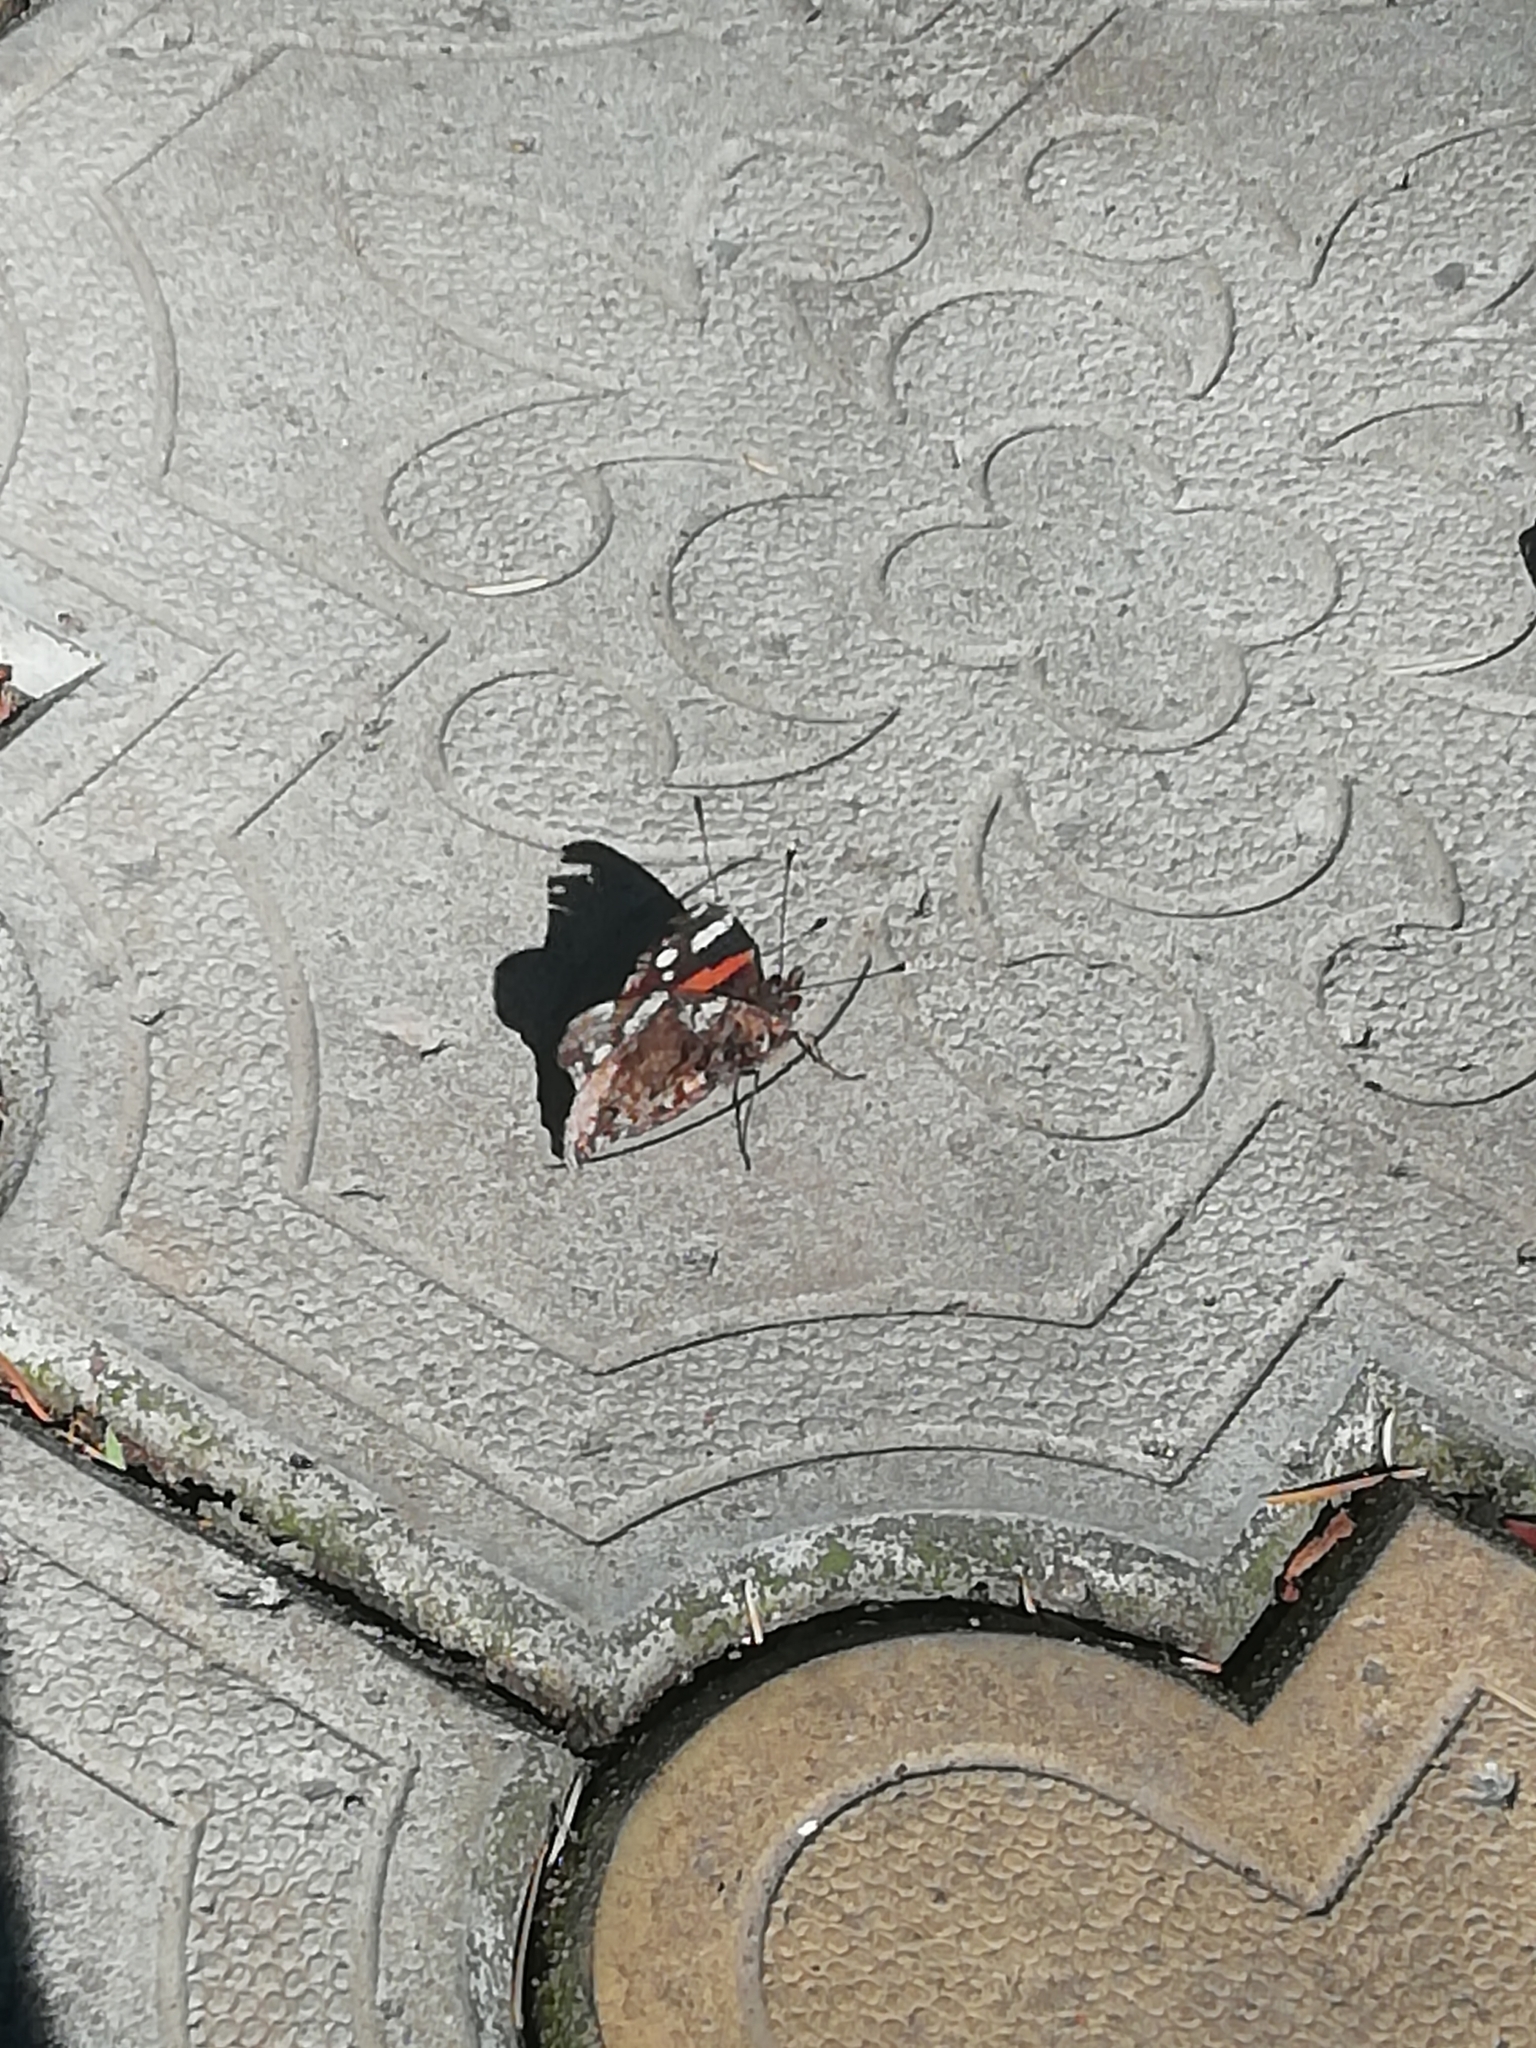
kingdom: Animalia
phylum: Arthropoda
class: Insecta
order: Lepidoptera
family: Nymphalidae
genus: Vanessa
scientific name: Vanessa atalanta
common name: Red admiral
